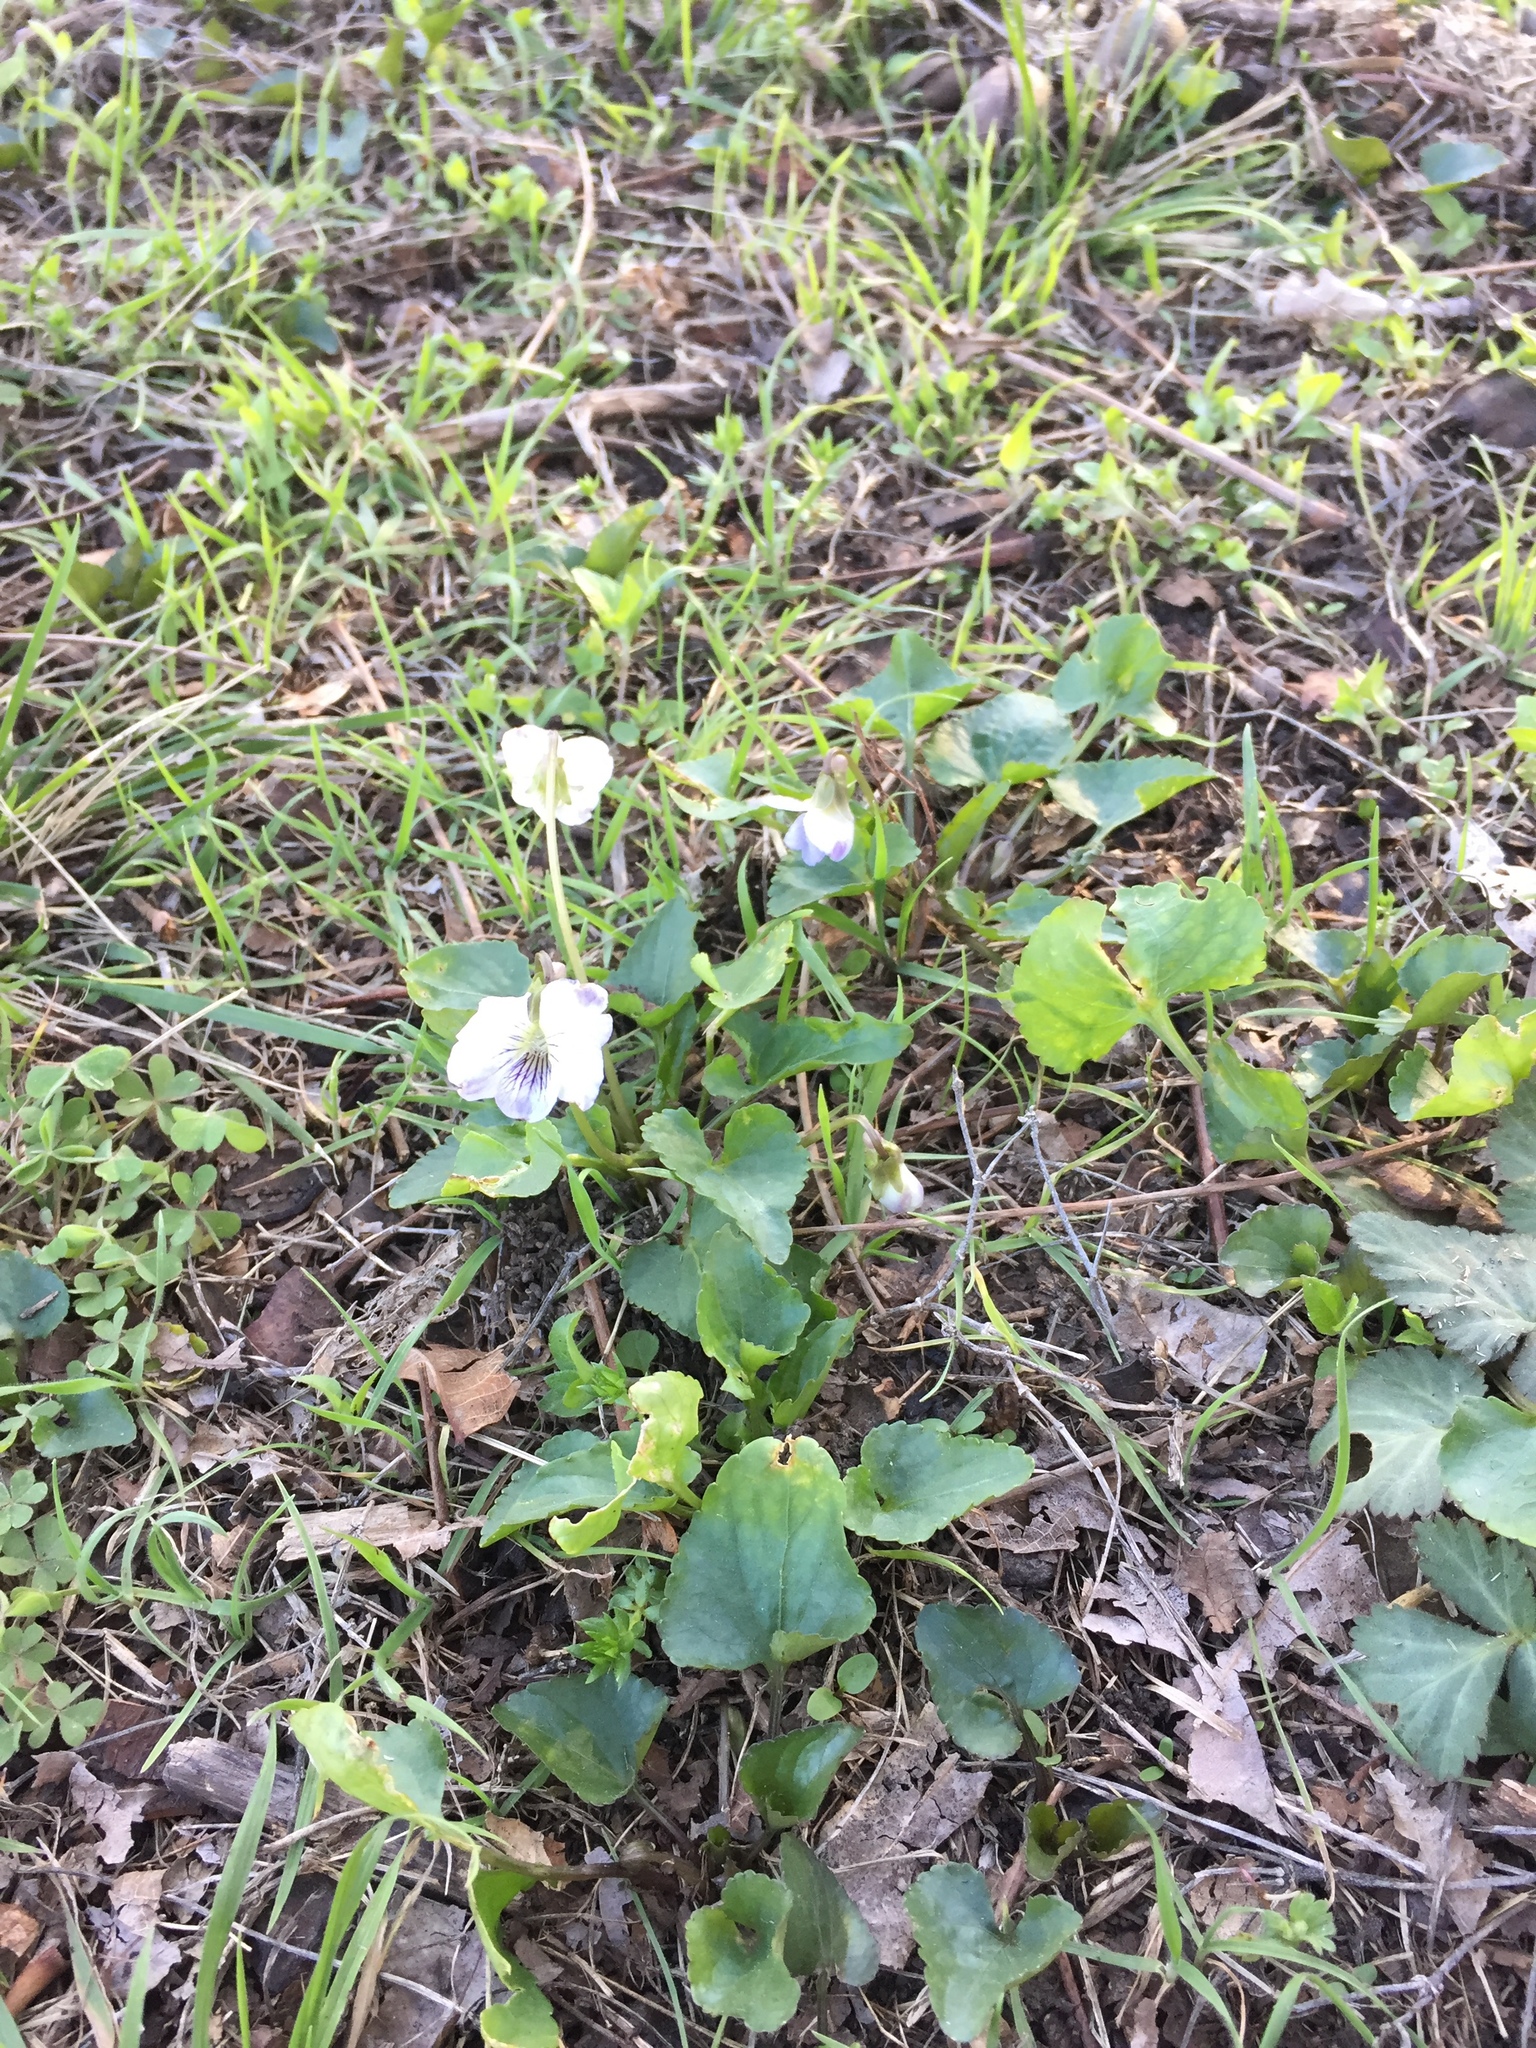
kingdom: Plantae
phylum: Tracheophyta
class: Magnoliopsida
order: Malpighiales
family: Violaceae
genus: Viola
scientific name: Viola missouriensis
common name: Missouri violet
